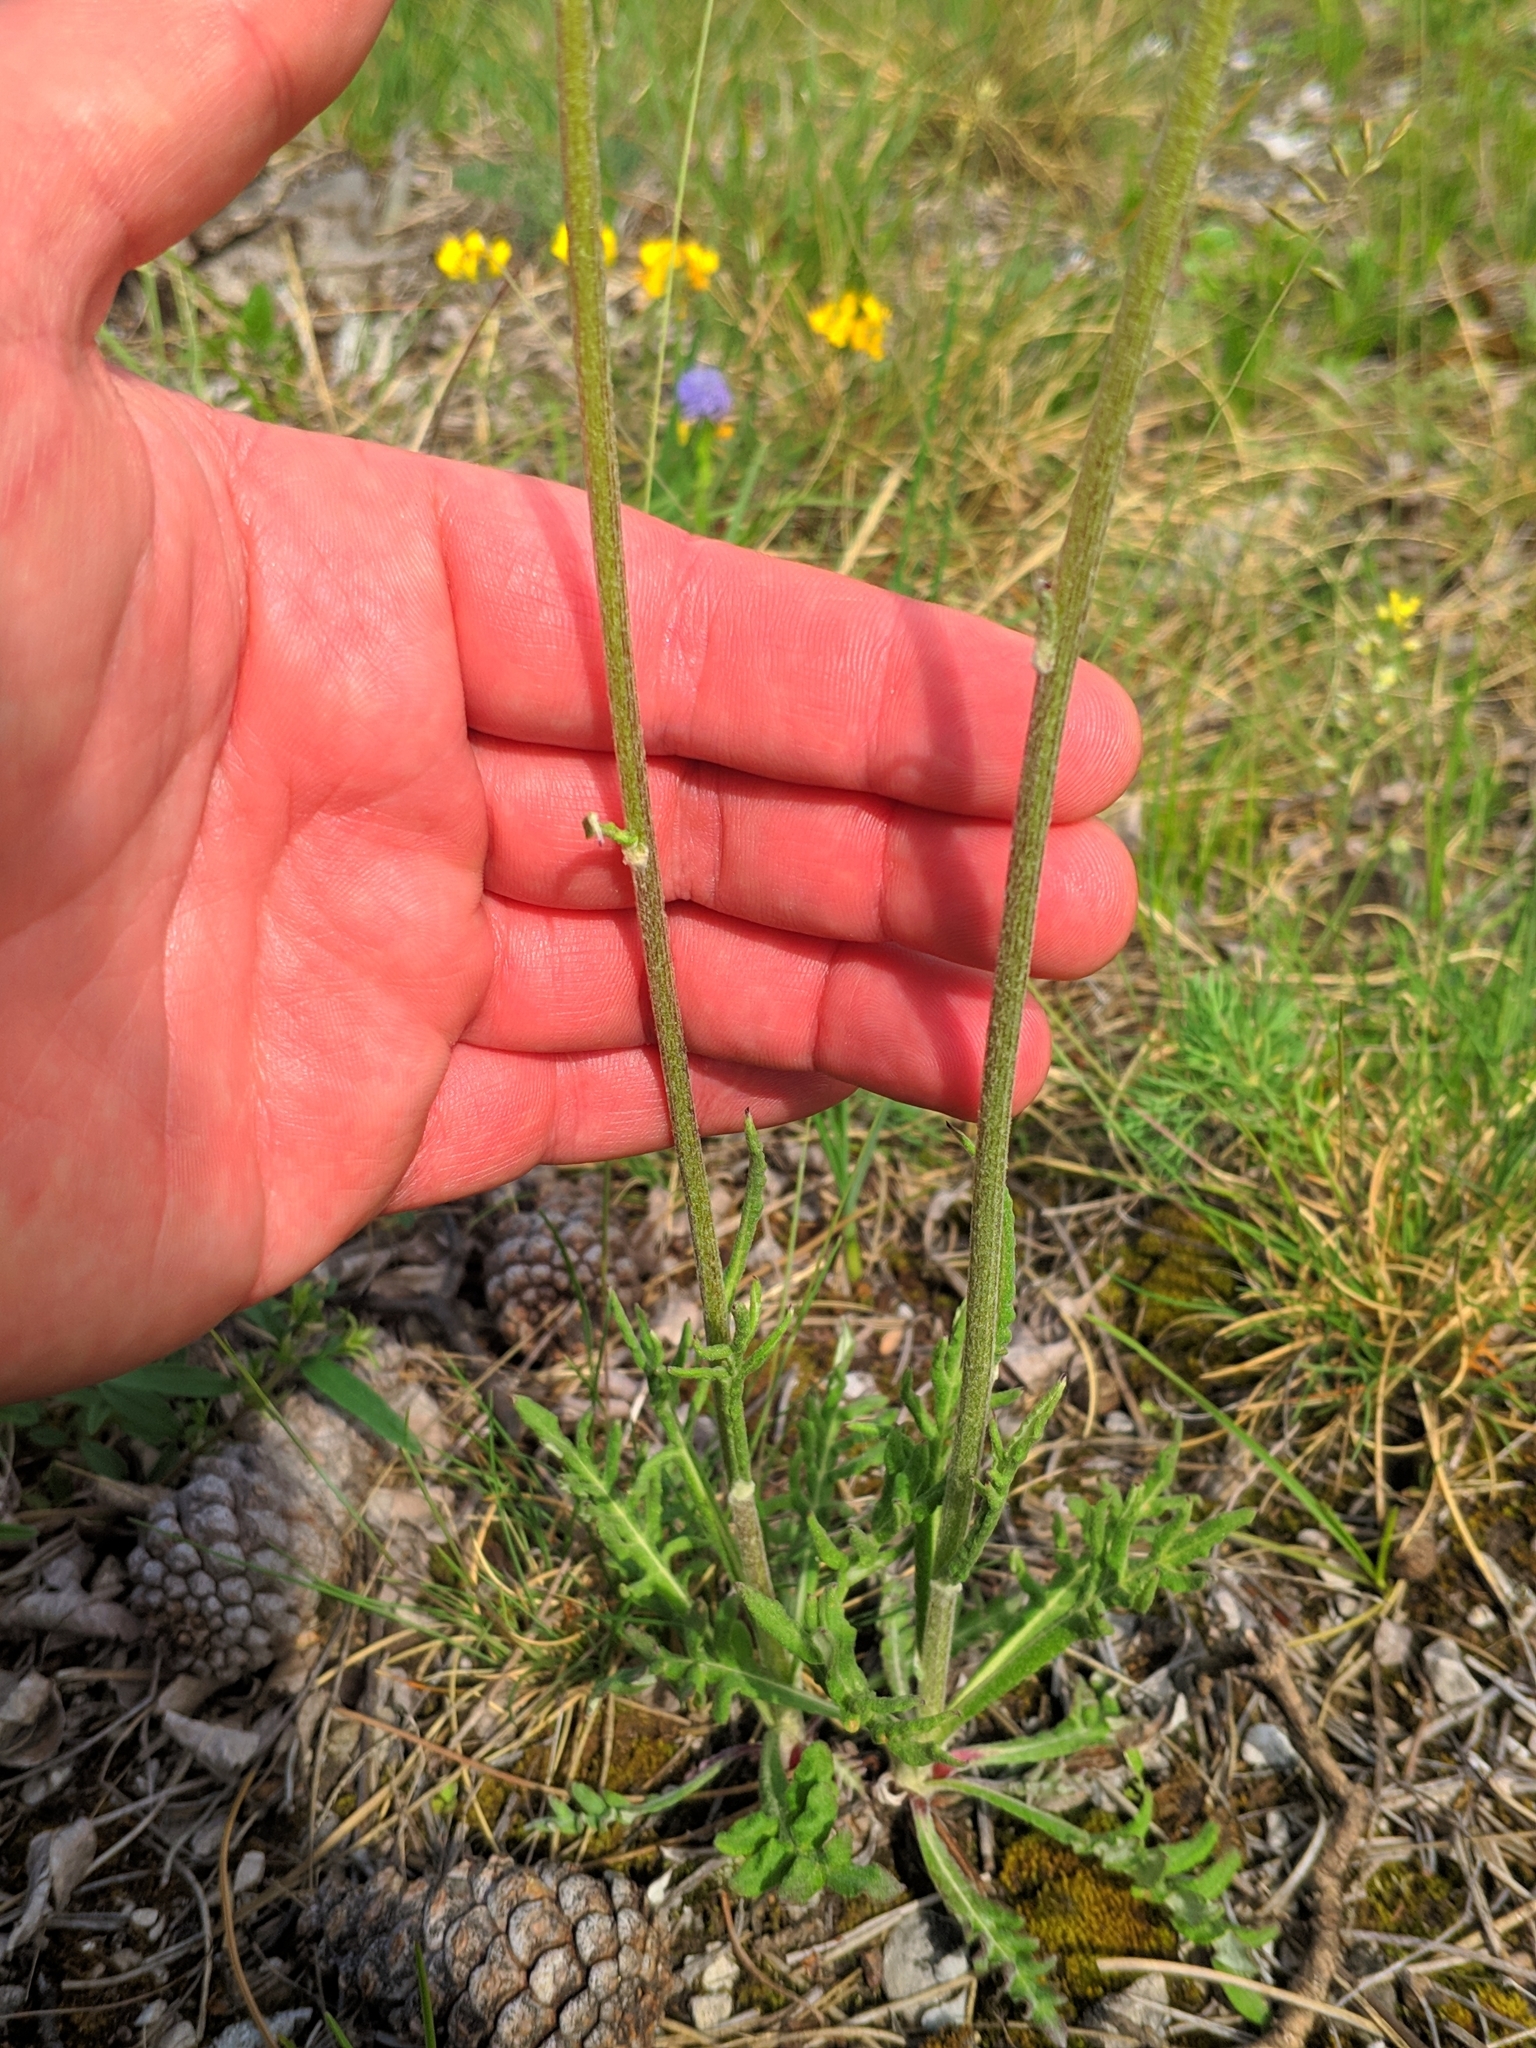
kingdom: Plantae
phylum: Tracheophyta
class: Magnoliopsida
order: Asterales
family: Asteraceae
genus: Jurinea
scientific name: Jurinea mollis
